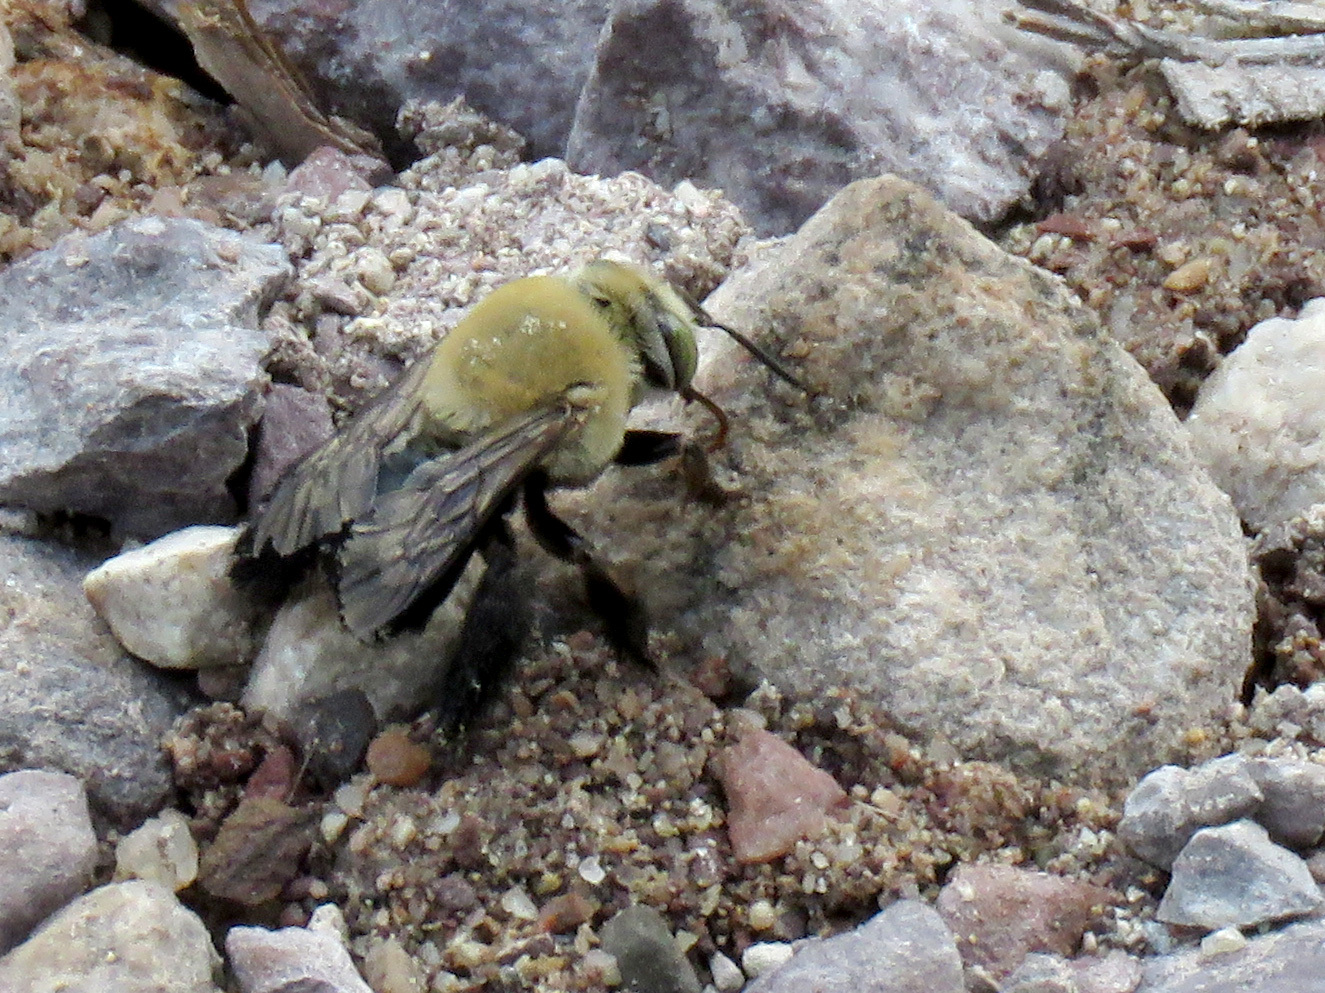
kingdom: Animalia
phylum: Arthropoda
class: Insecta
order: Hymenoptera
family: Apidae
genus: Centris
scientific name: Centris atripes
